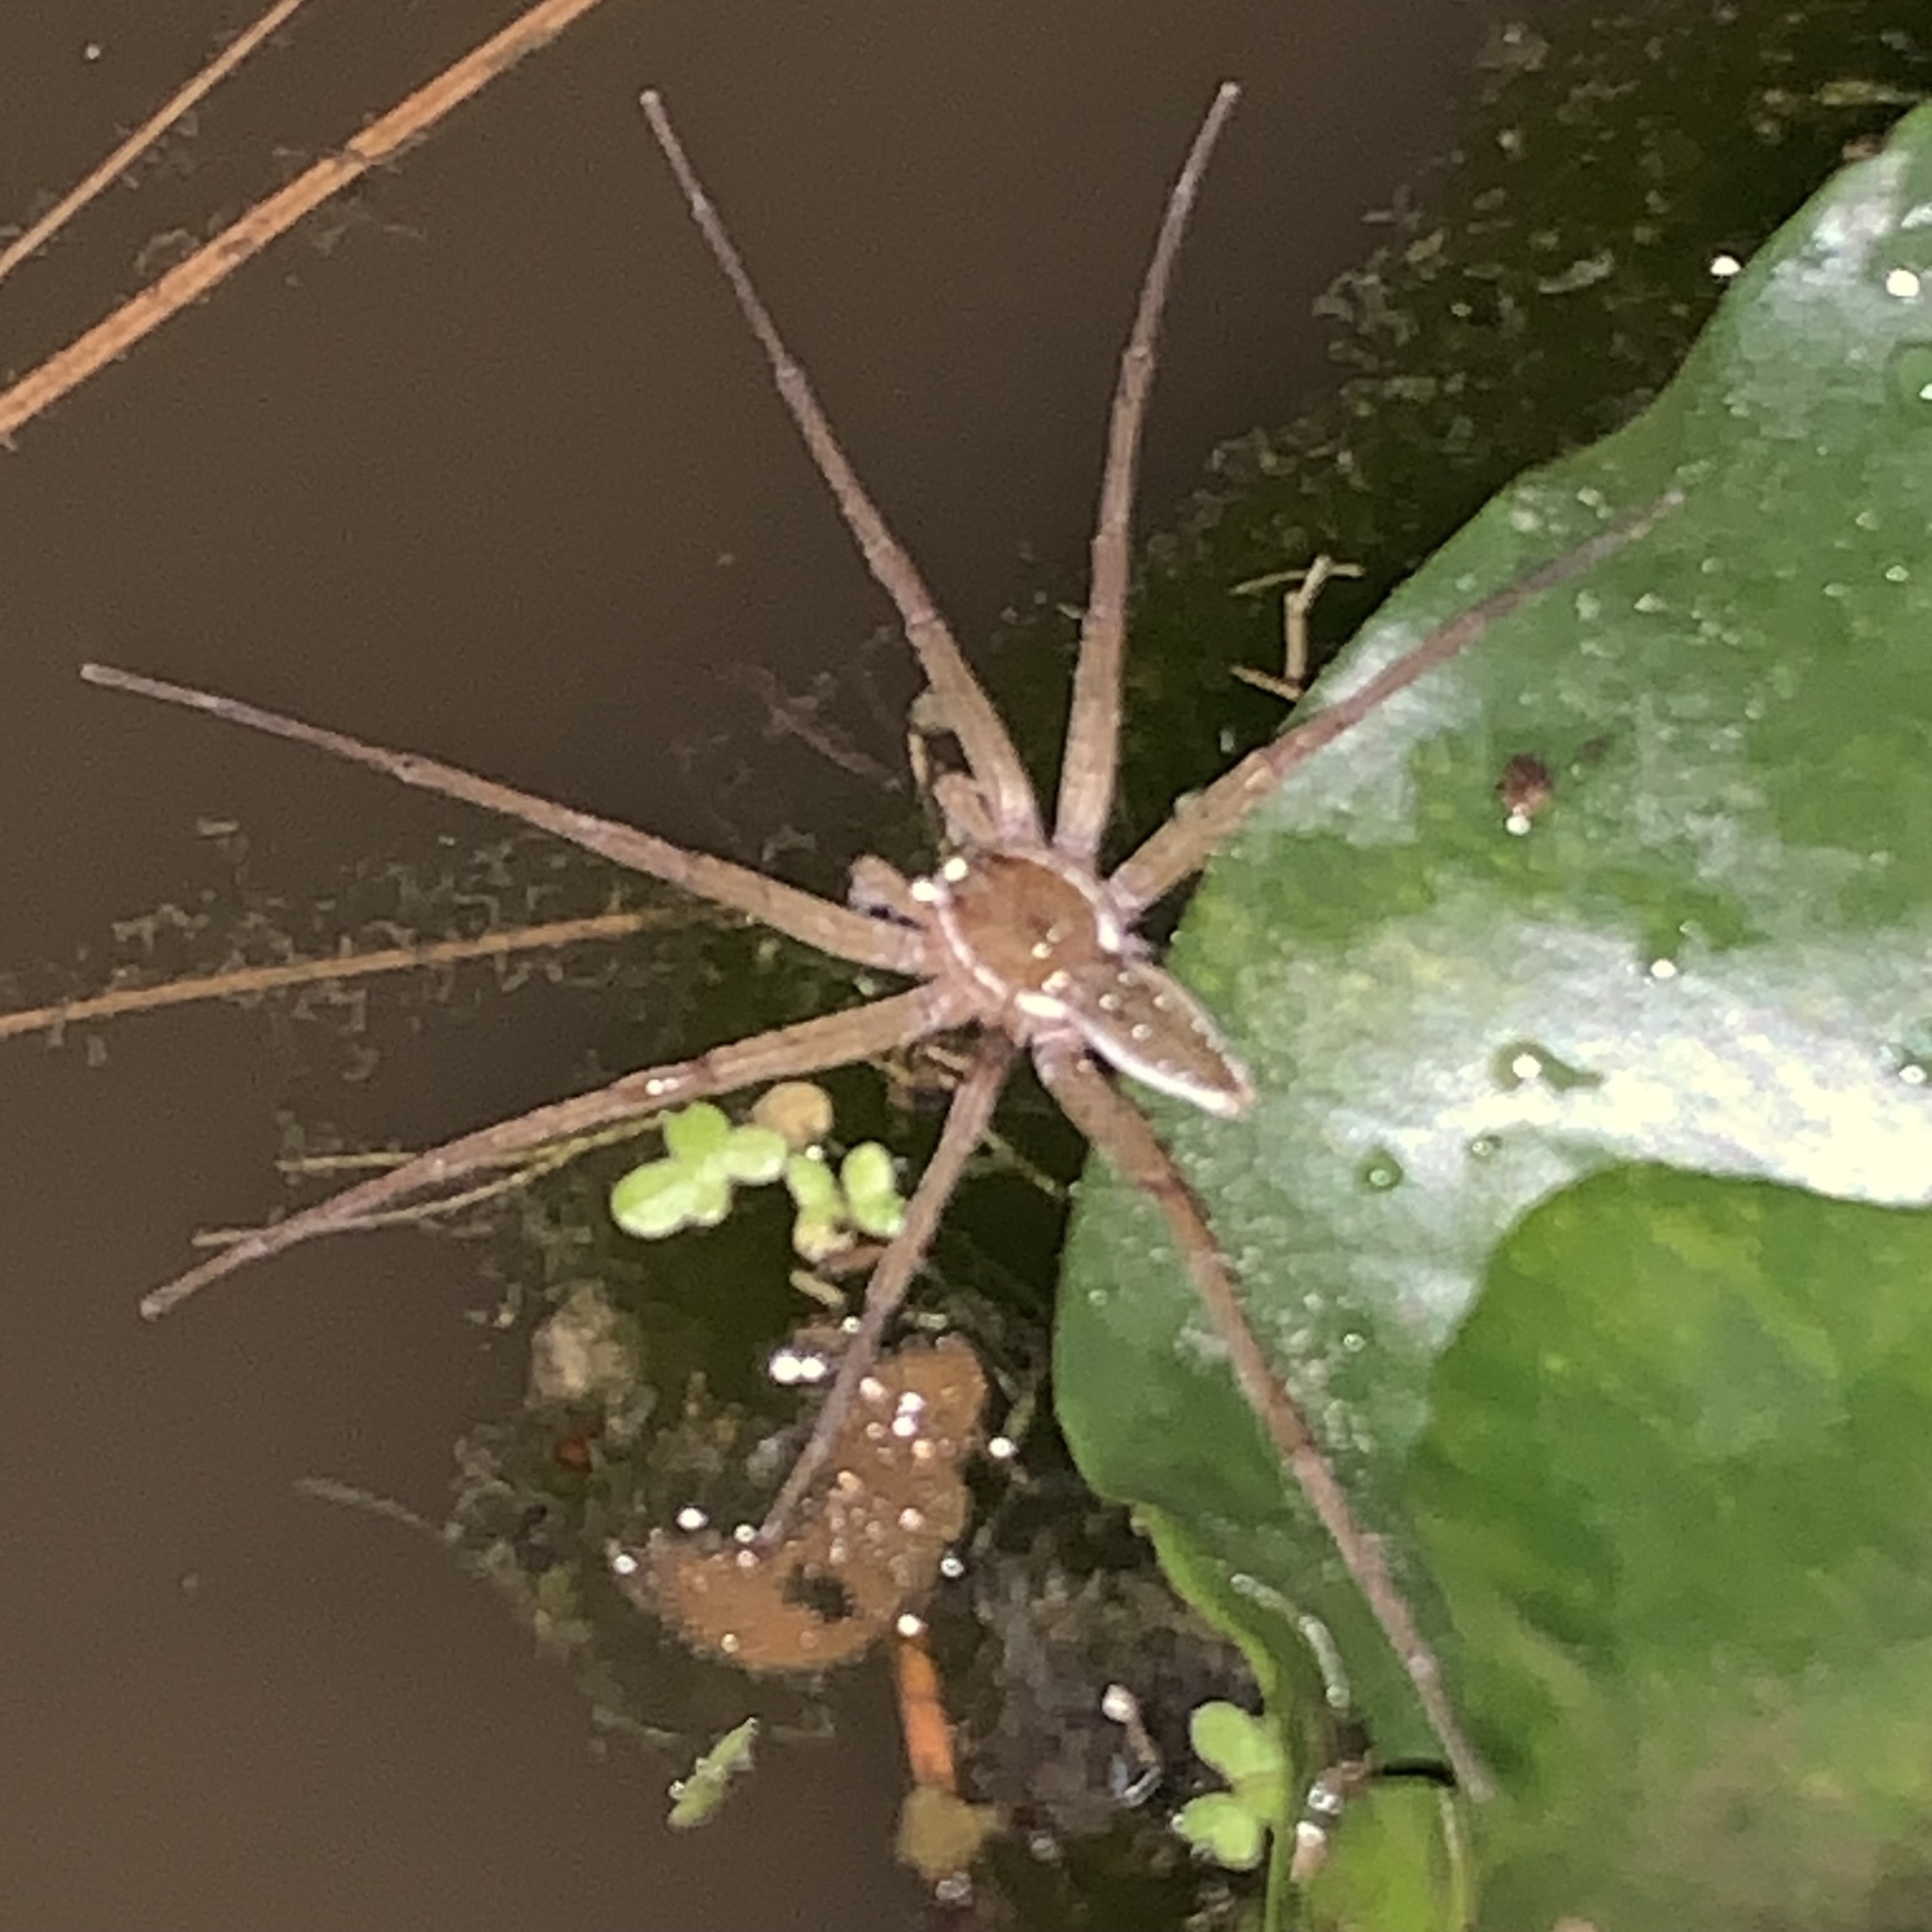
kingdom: Animalia
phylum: Arthropoda
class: Arachnida
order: Araneae
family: Pisauridae
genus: Dolomedes
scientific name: Dolomedes triton
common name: Six-spotted fishing spider
